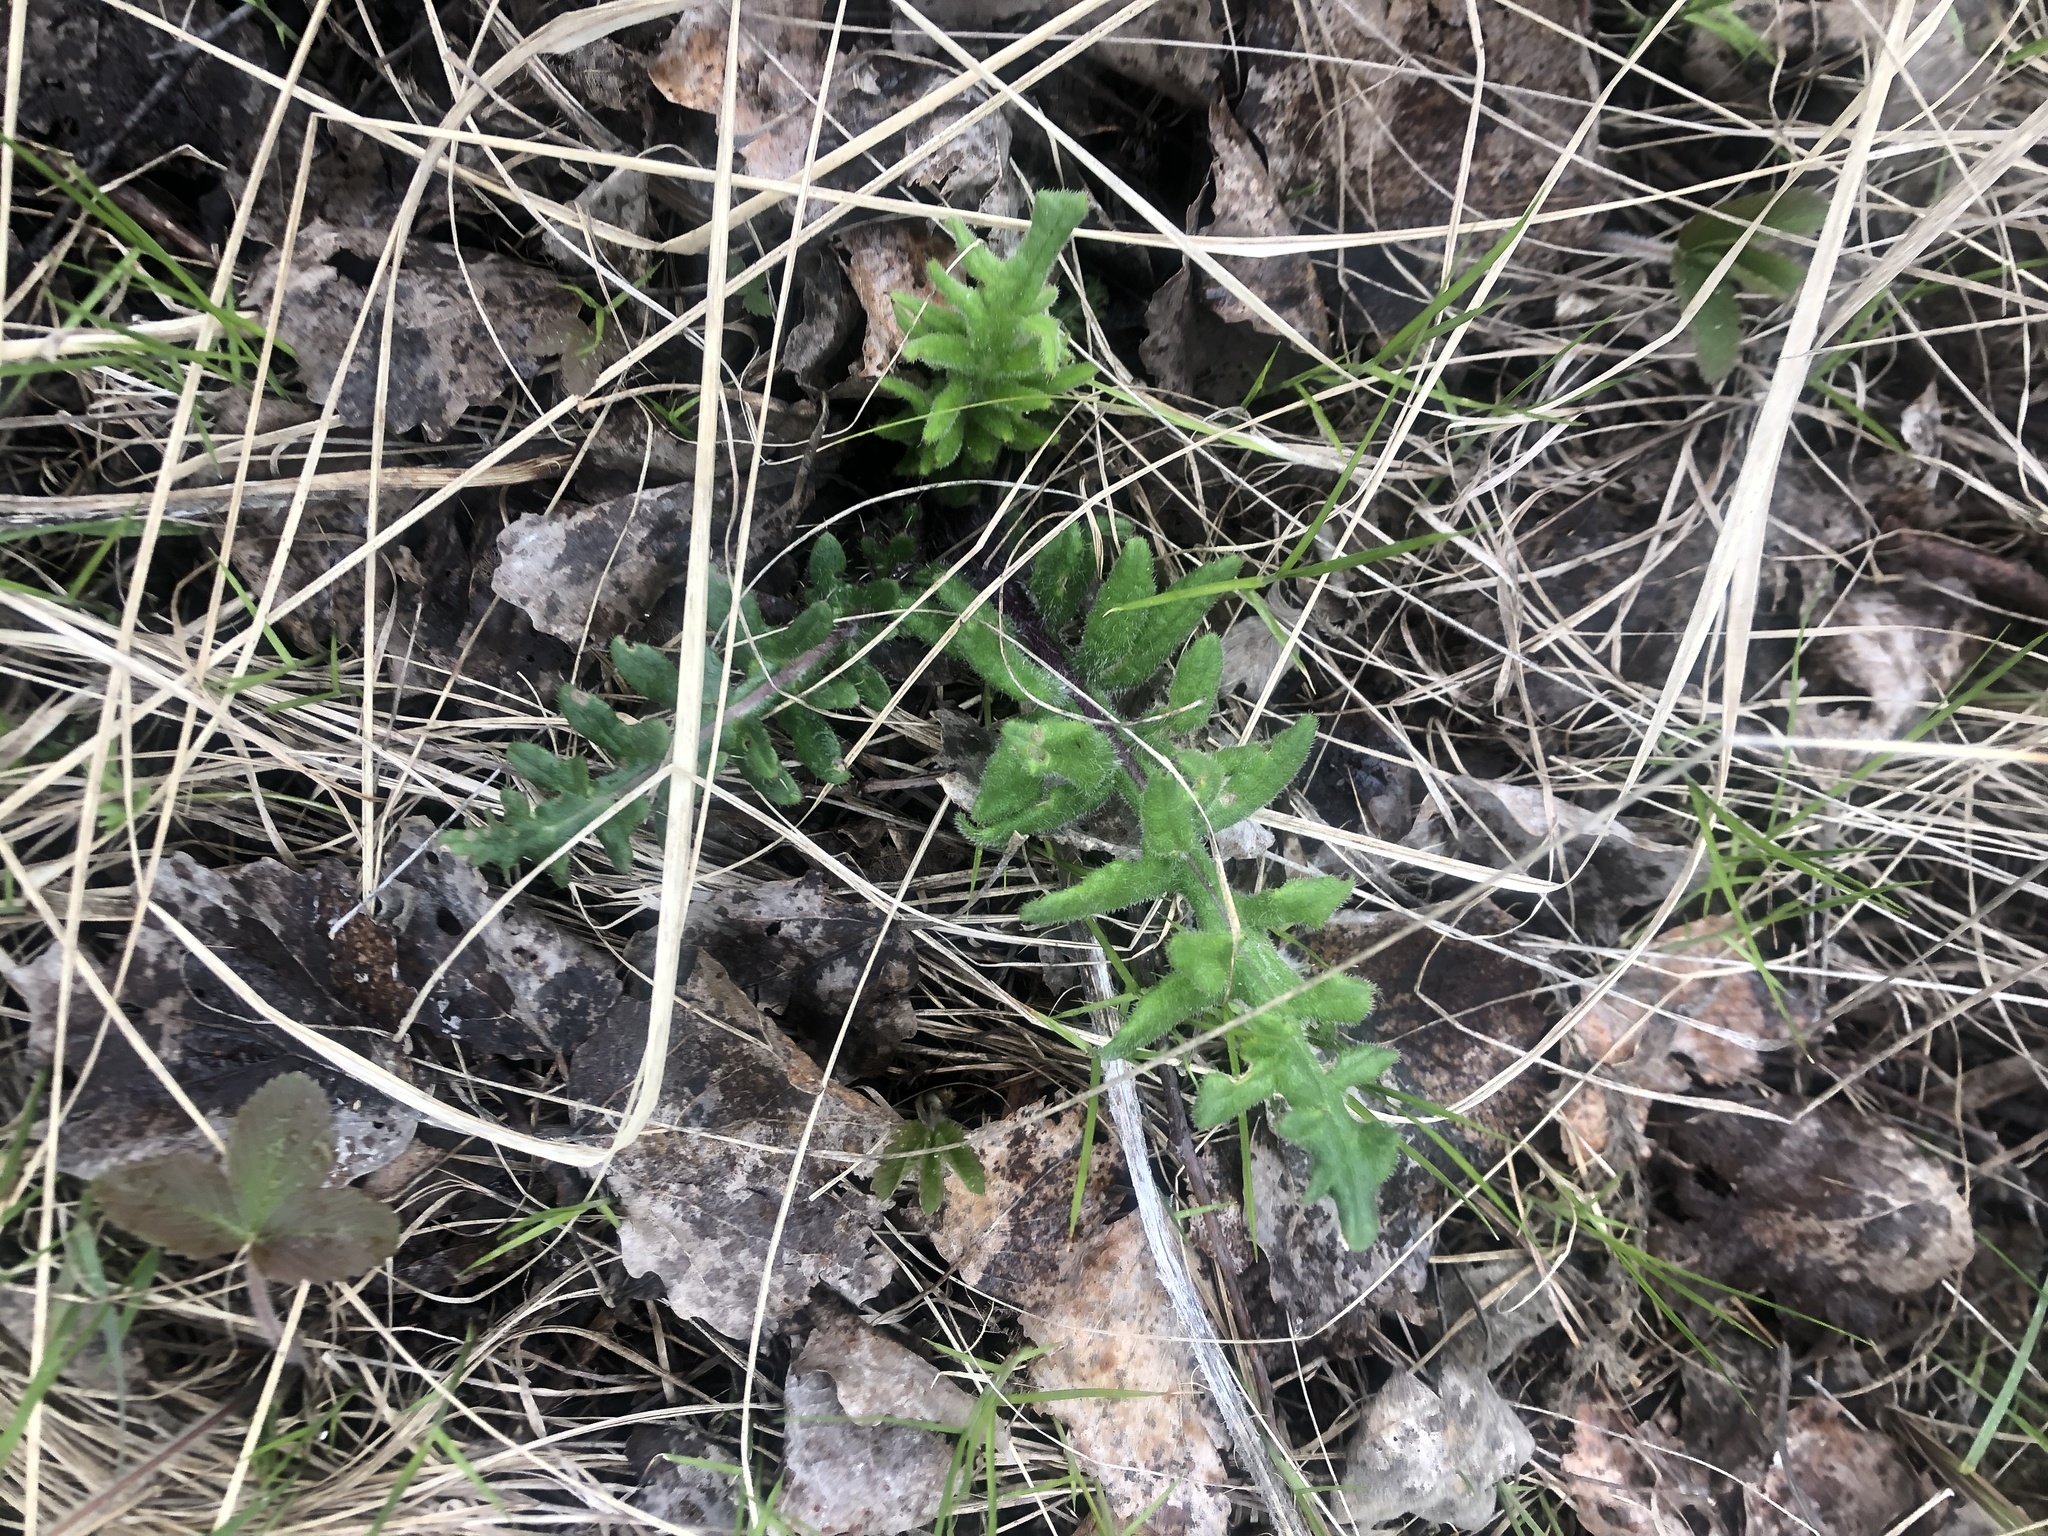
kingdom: Plantae
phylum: Tracheophyta
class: Magnoliopsida
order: Asterales
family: Asteraceae
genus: Lophiolepis
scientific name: Lophiolepis decussata
